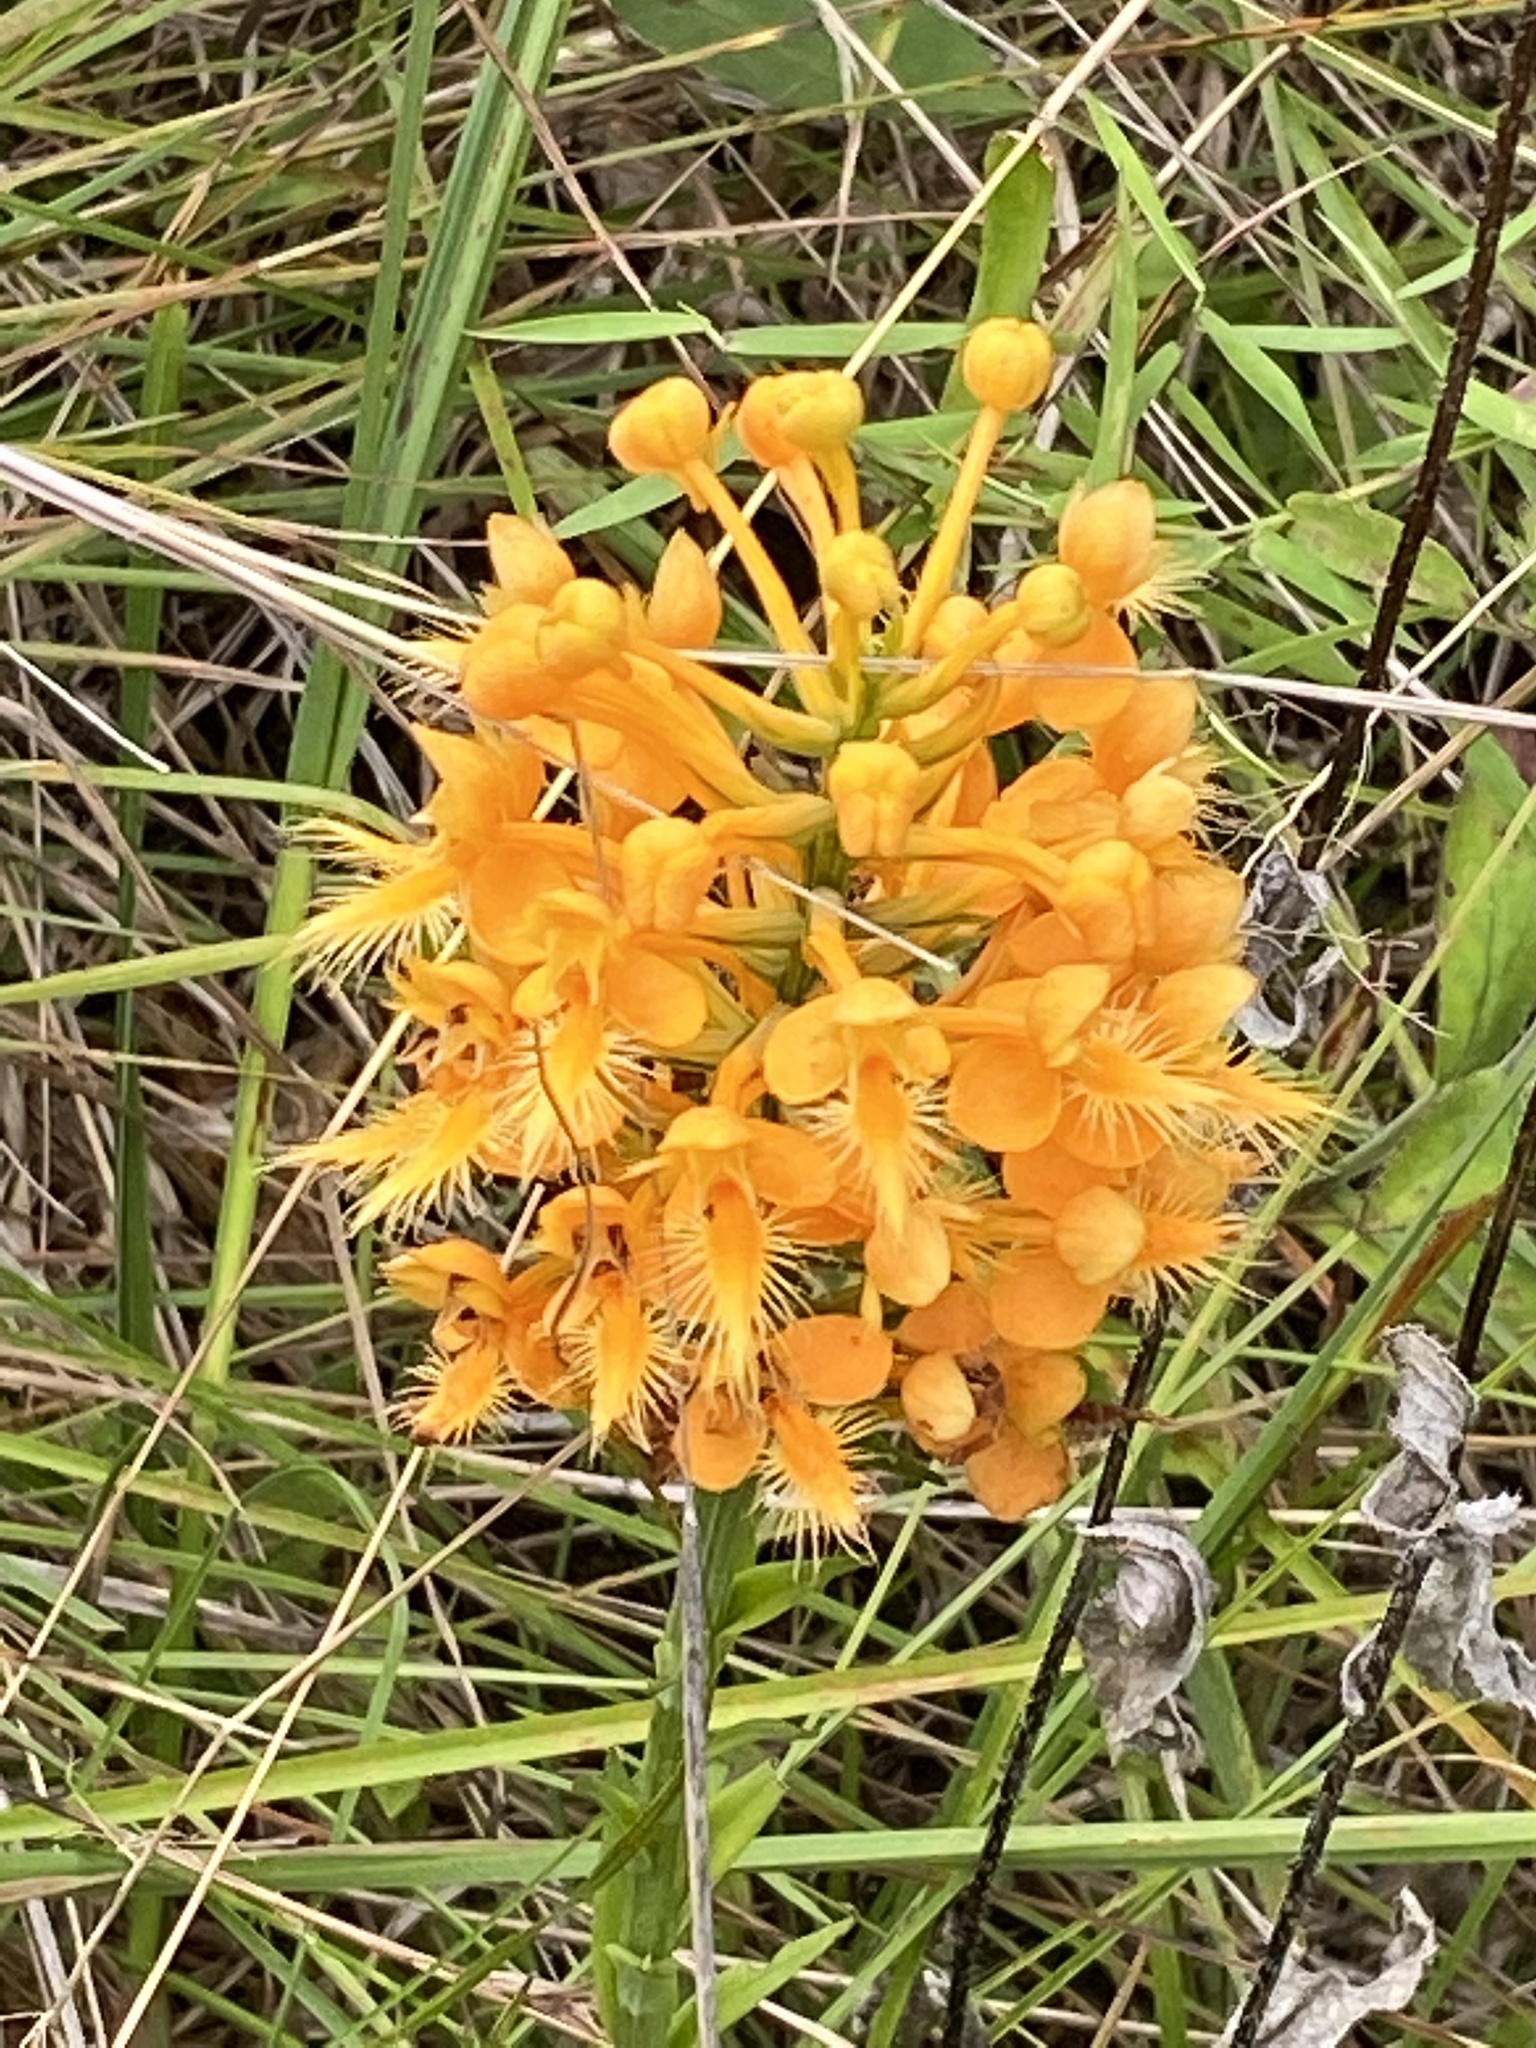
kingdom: Plantae
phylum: Tracheophyta
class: Liliopsida
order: Asparagales
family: Orchidaceae
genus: Platanthera
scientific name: Platanthera ciliaris
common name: Yellow fringed orchid
